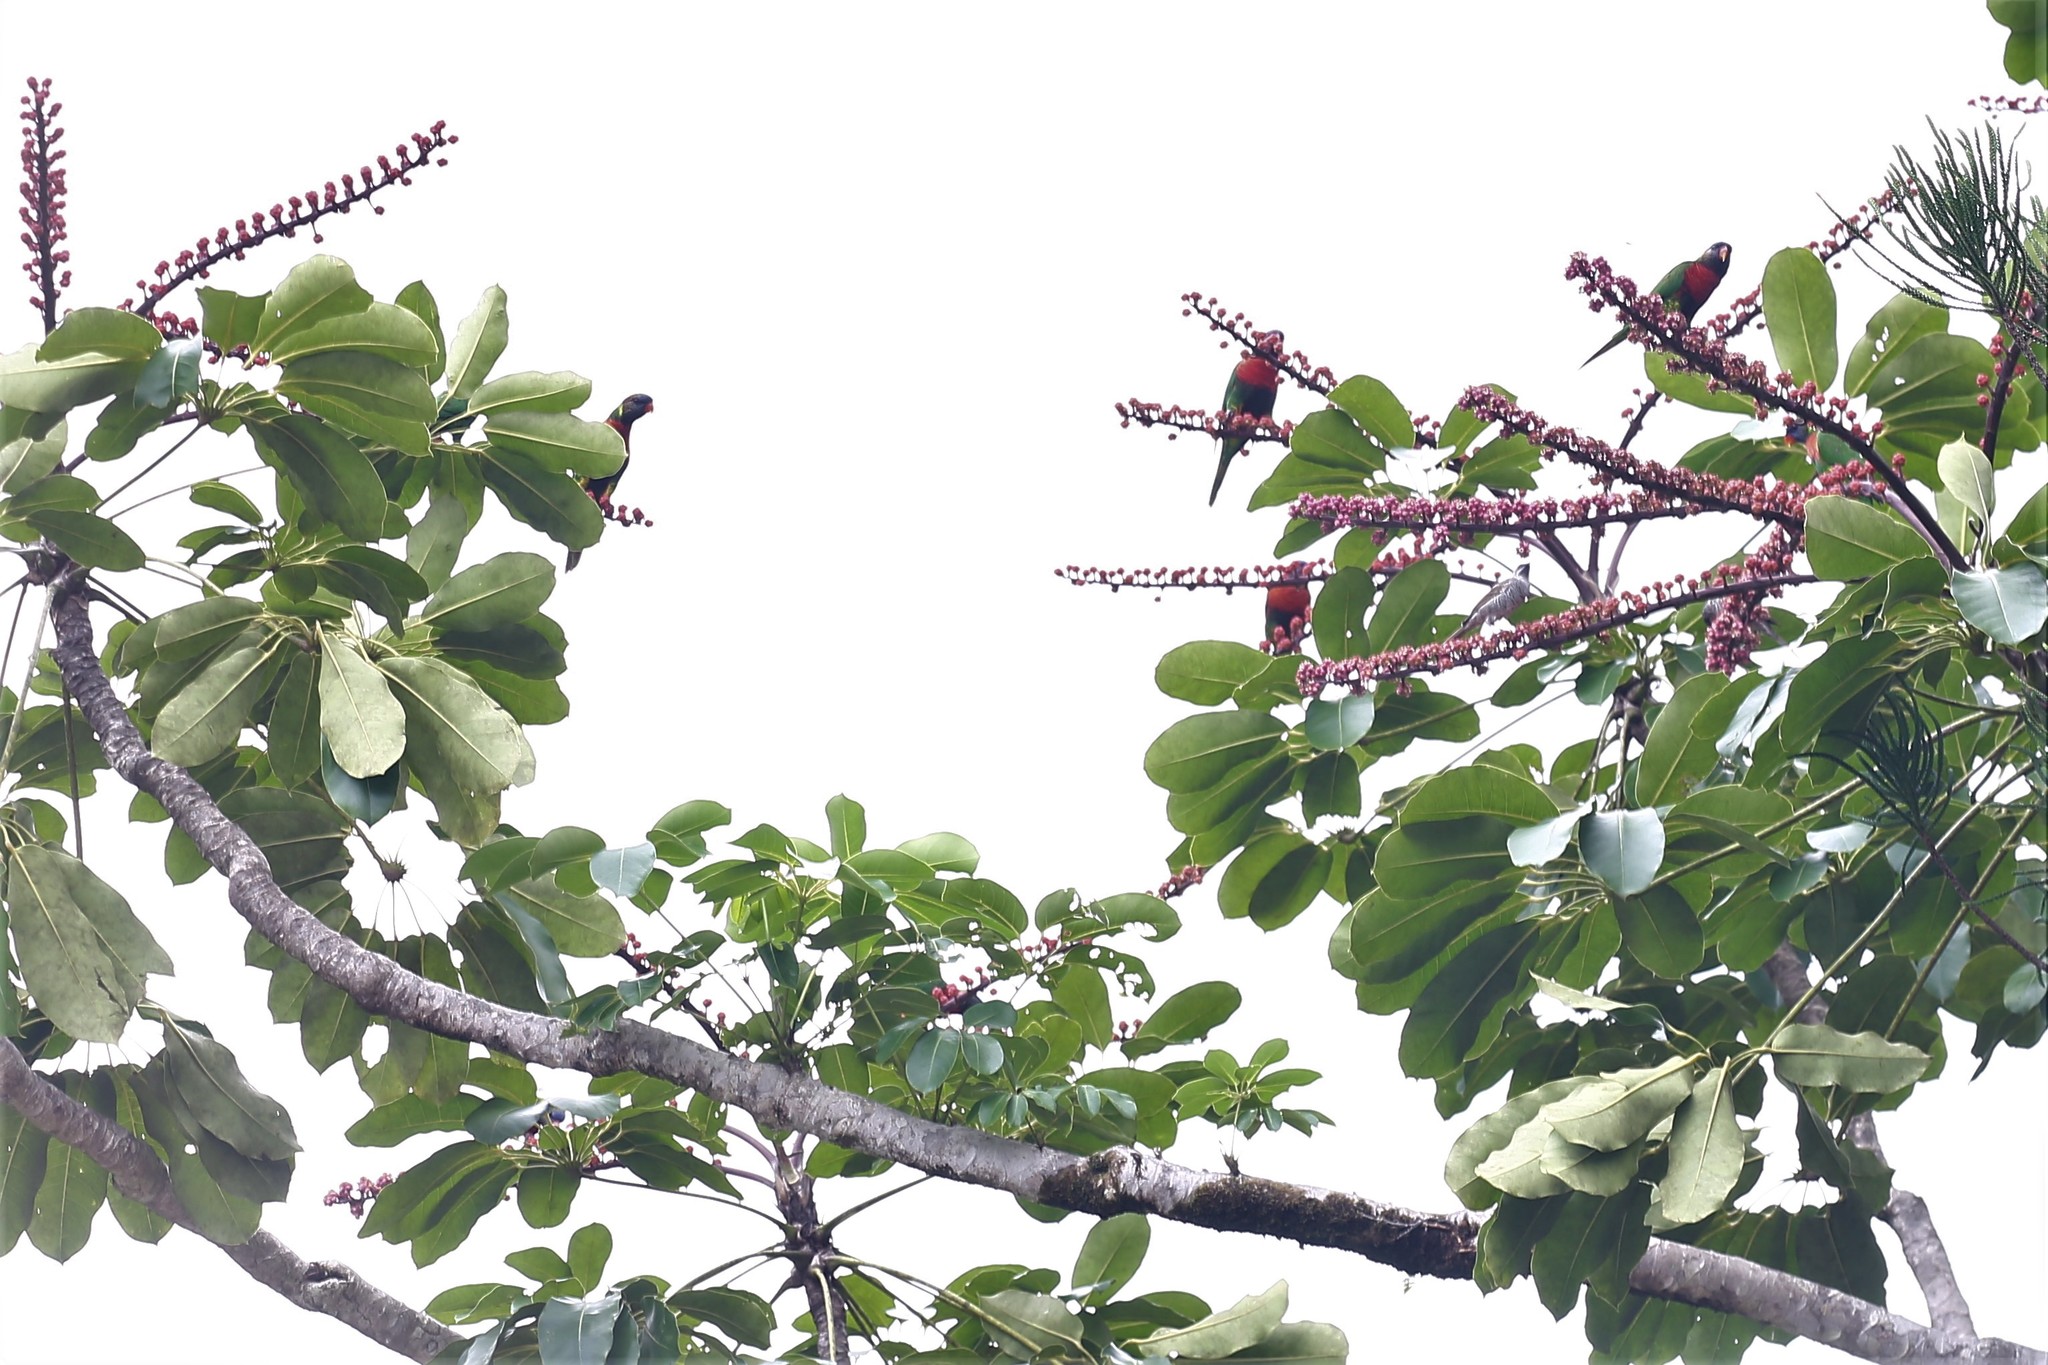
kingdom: Animalia
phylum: Chordata
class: Aves
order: Psittaciformes
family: Psittacidae
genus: Trichoglossus
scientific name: Trichoglossus haematodus
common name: Coconut lorikeet
